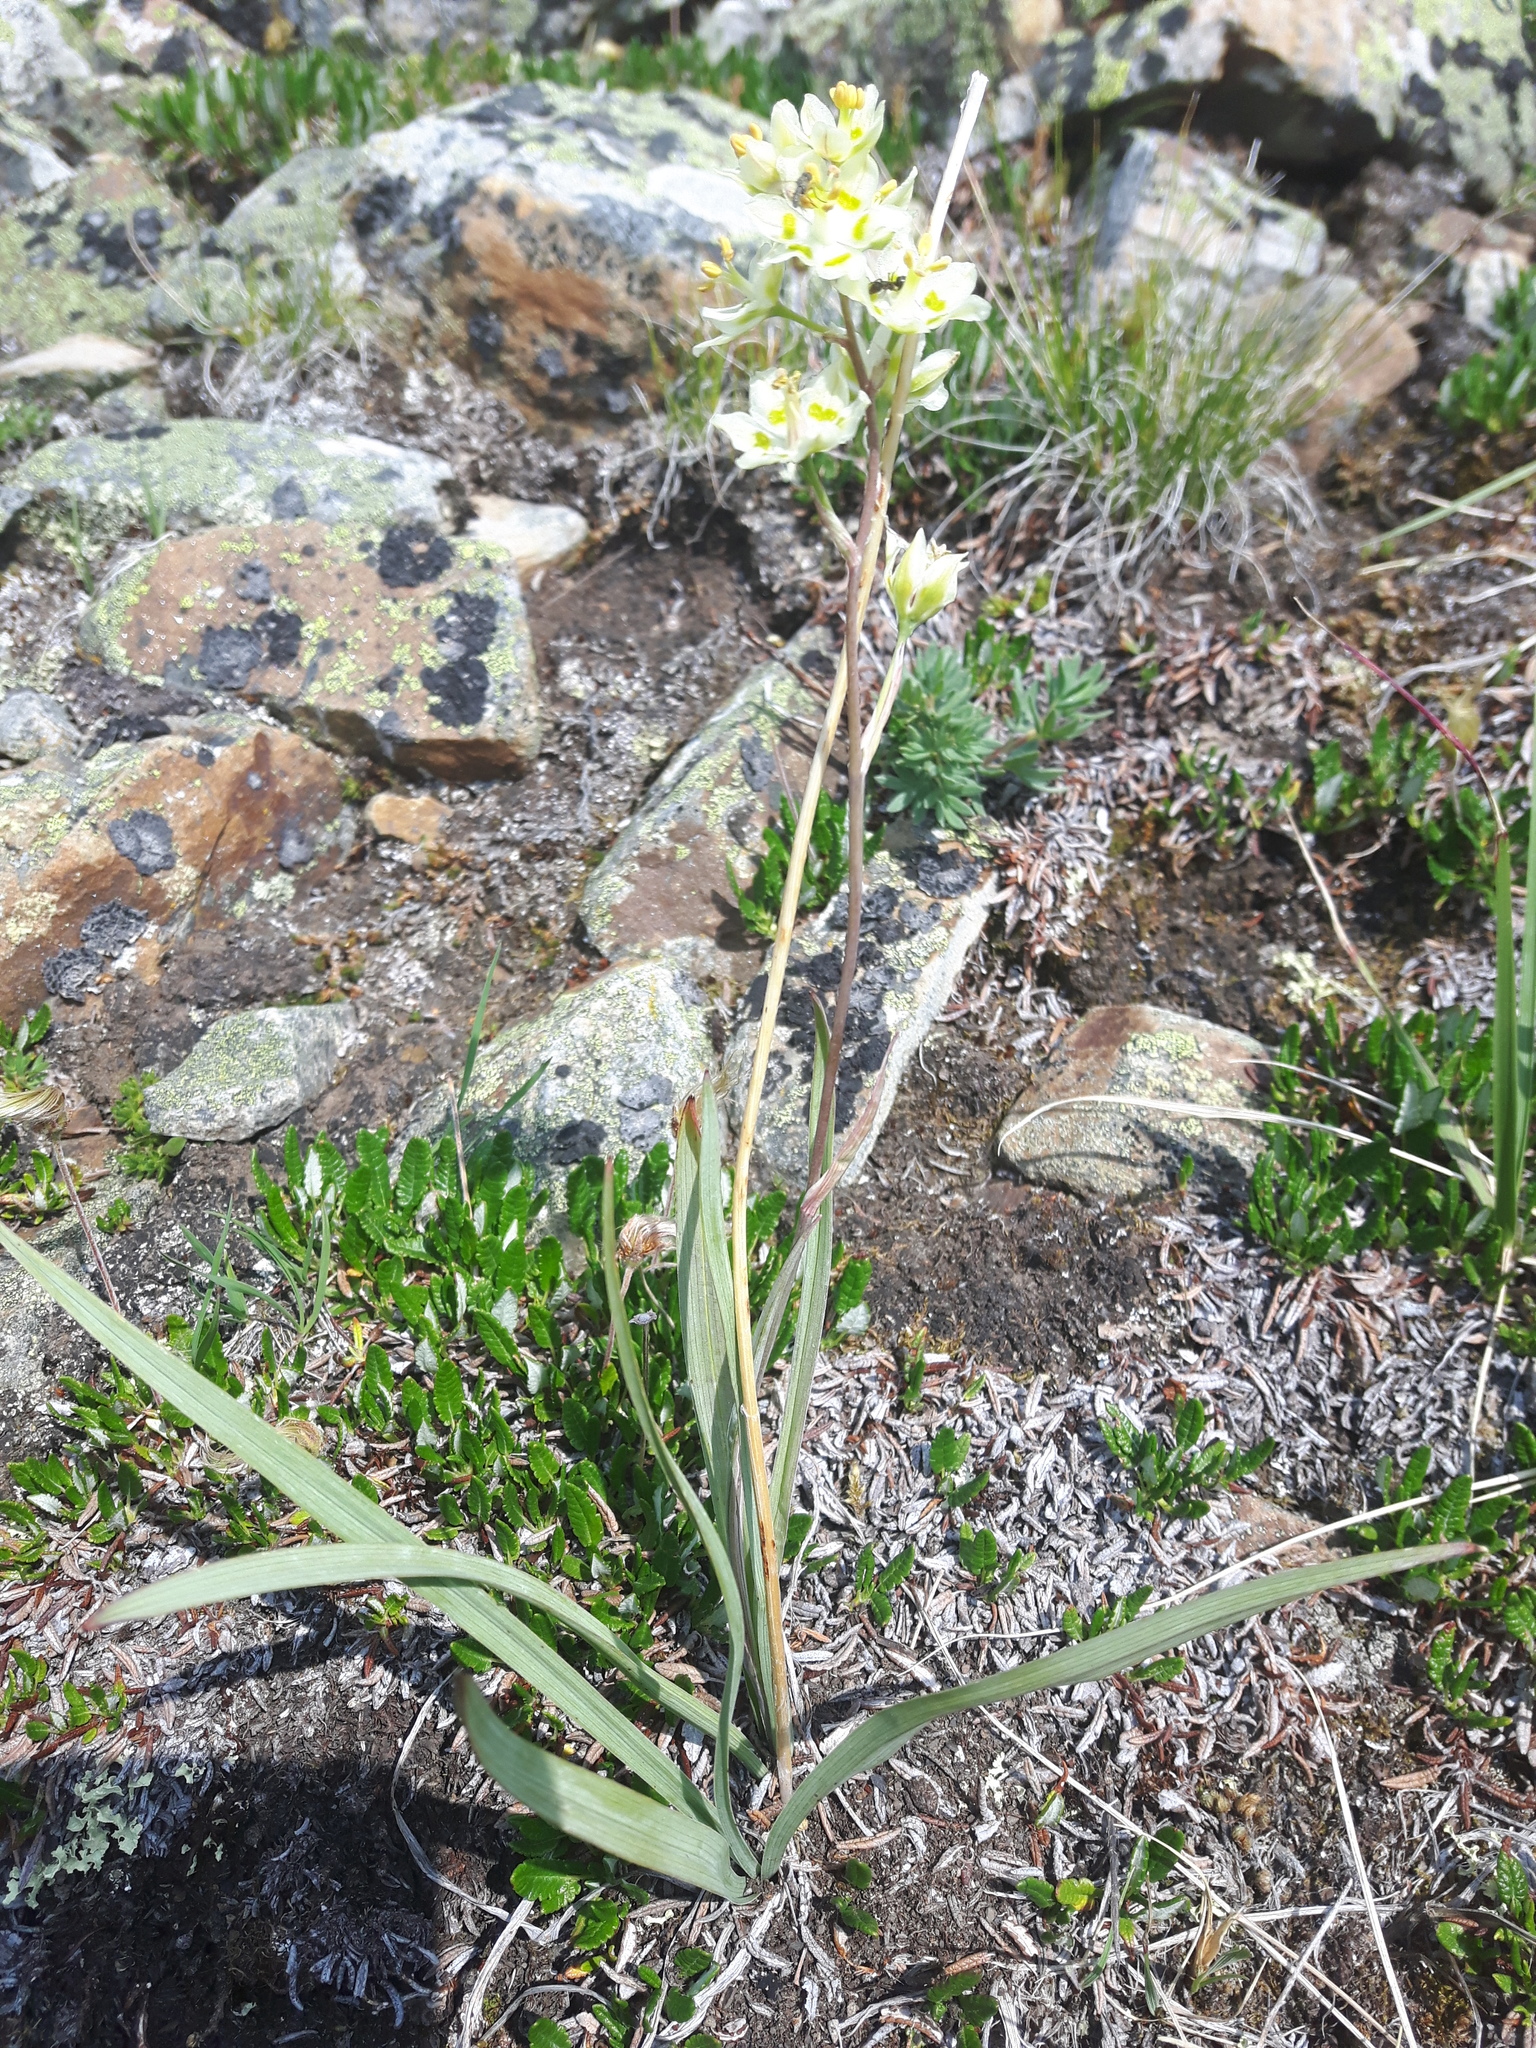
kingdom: Plantae
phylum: Tracheophyta
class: Liliopsida
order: Liliales
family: Melanthiaceae
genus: Anticlea
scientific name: Anticlea elegans
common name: Mountain death camas
